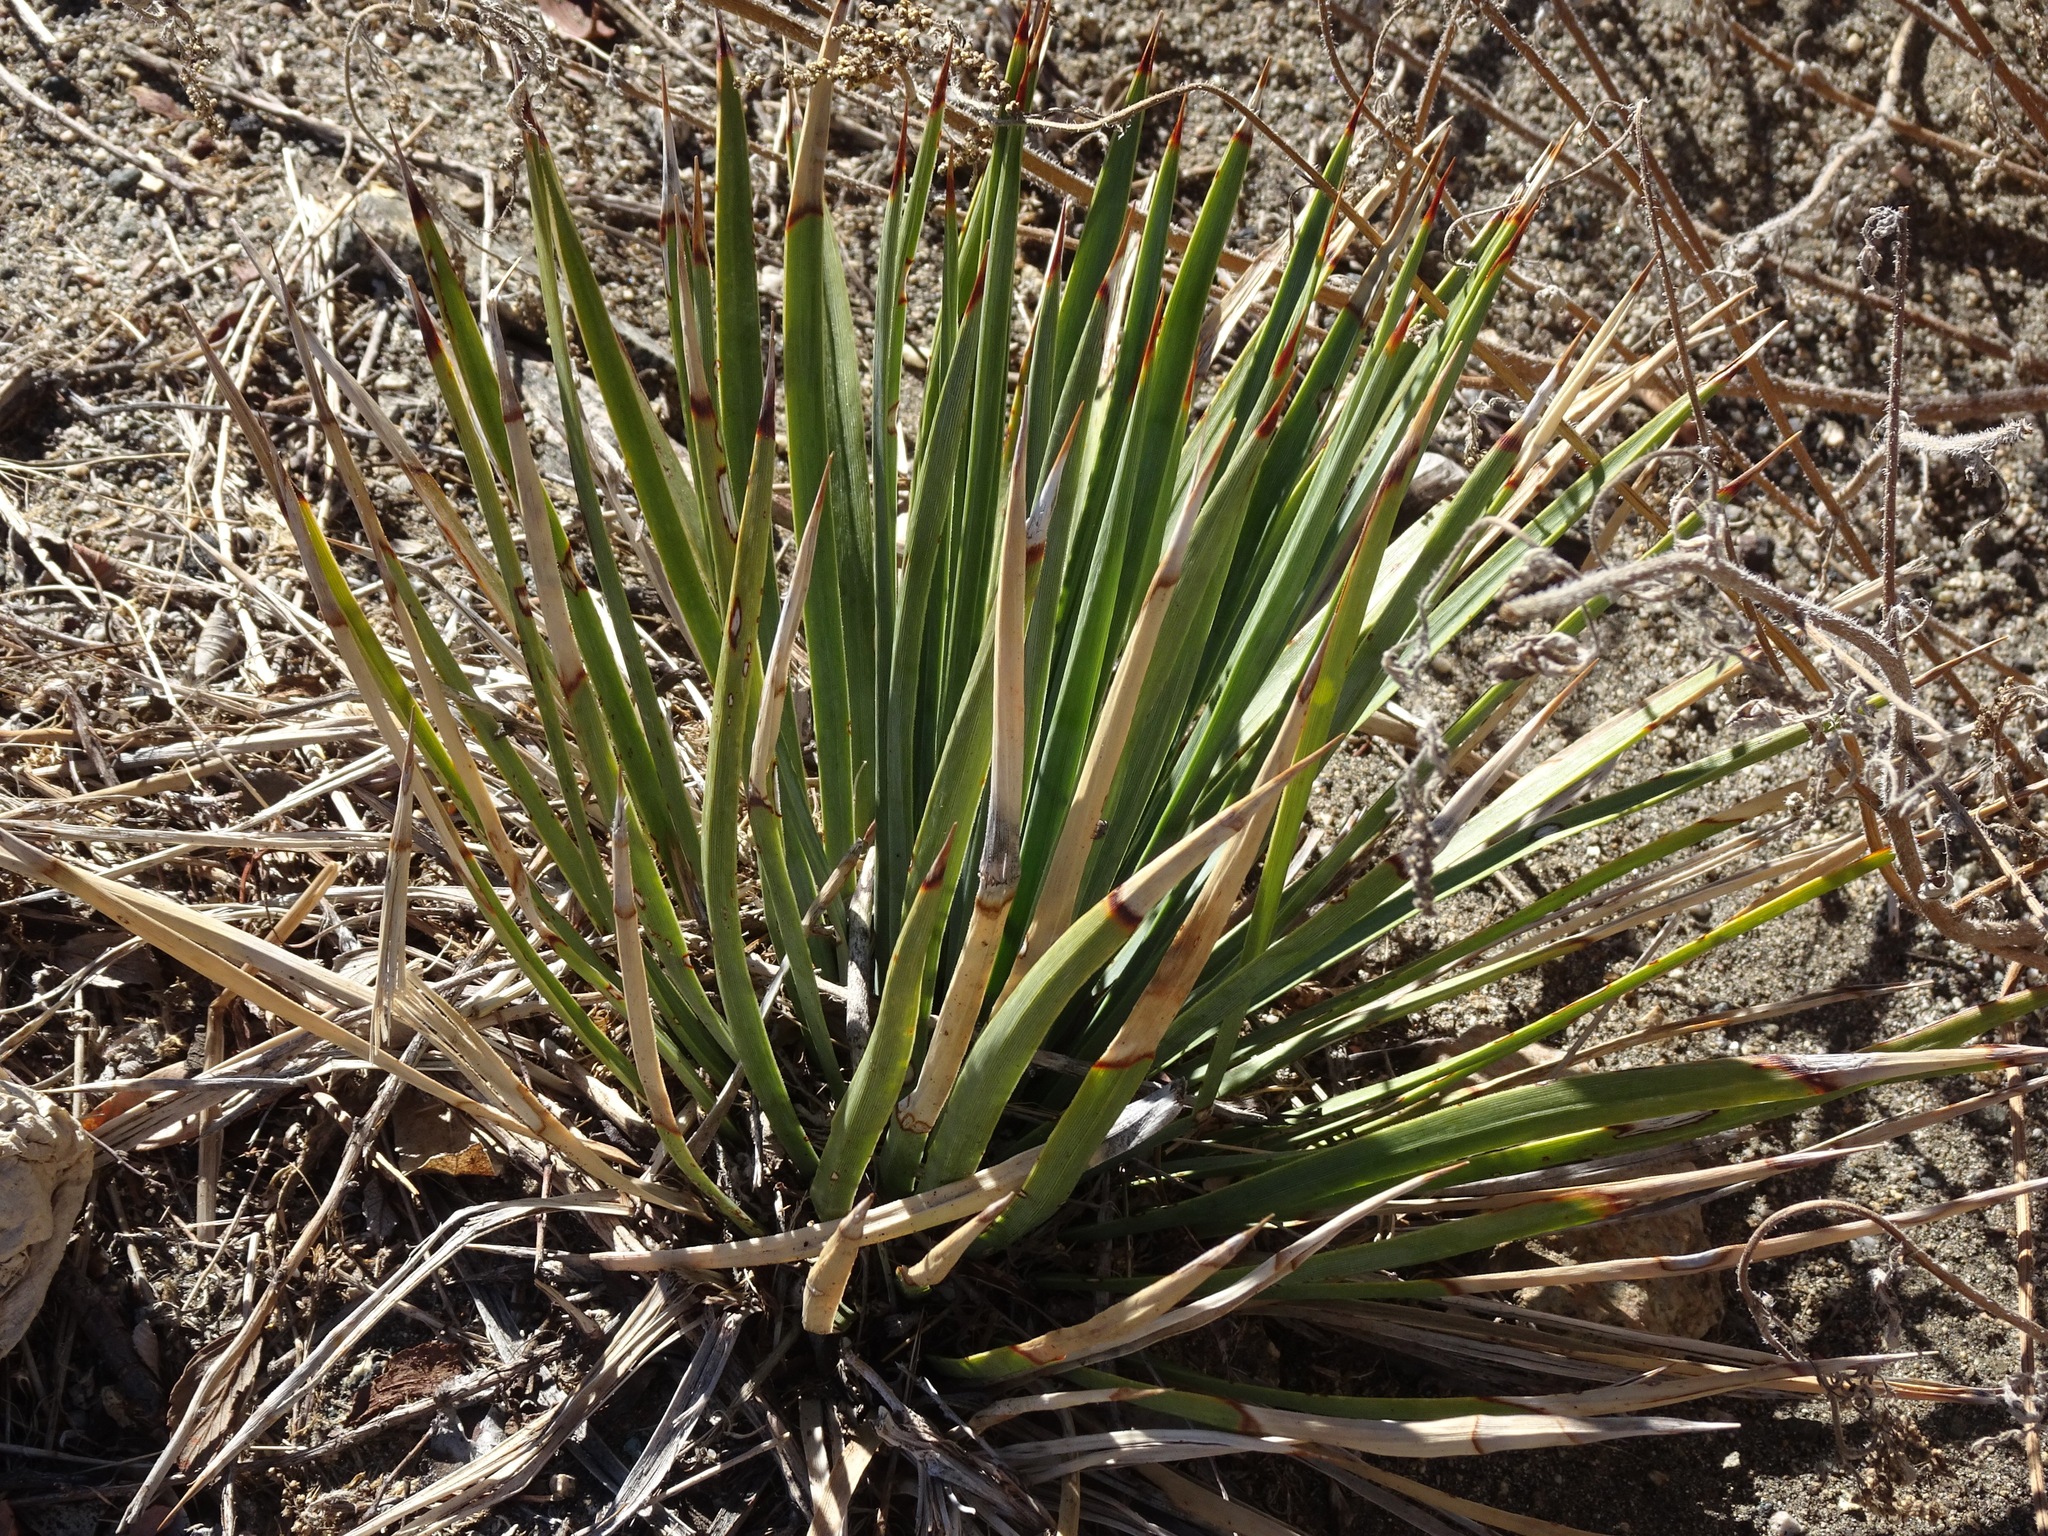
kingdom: Plantae
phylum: Tracheophyta
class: Liliopsida
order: Asparagales
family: Asparagaceae
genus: Hesperoyucca
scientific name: Hesperoyucca whipplei
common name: Our lord's-candle
